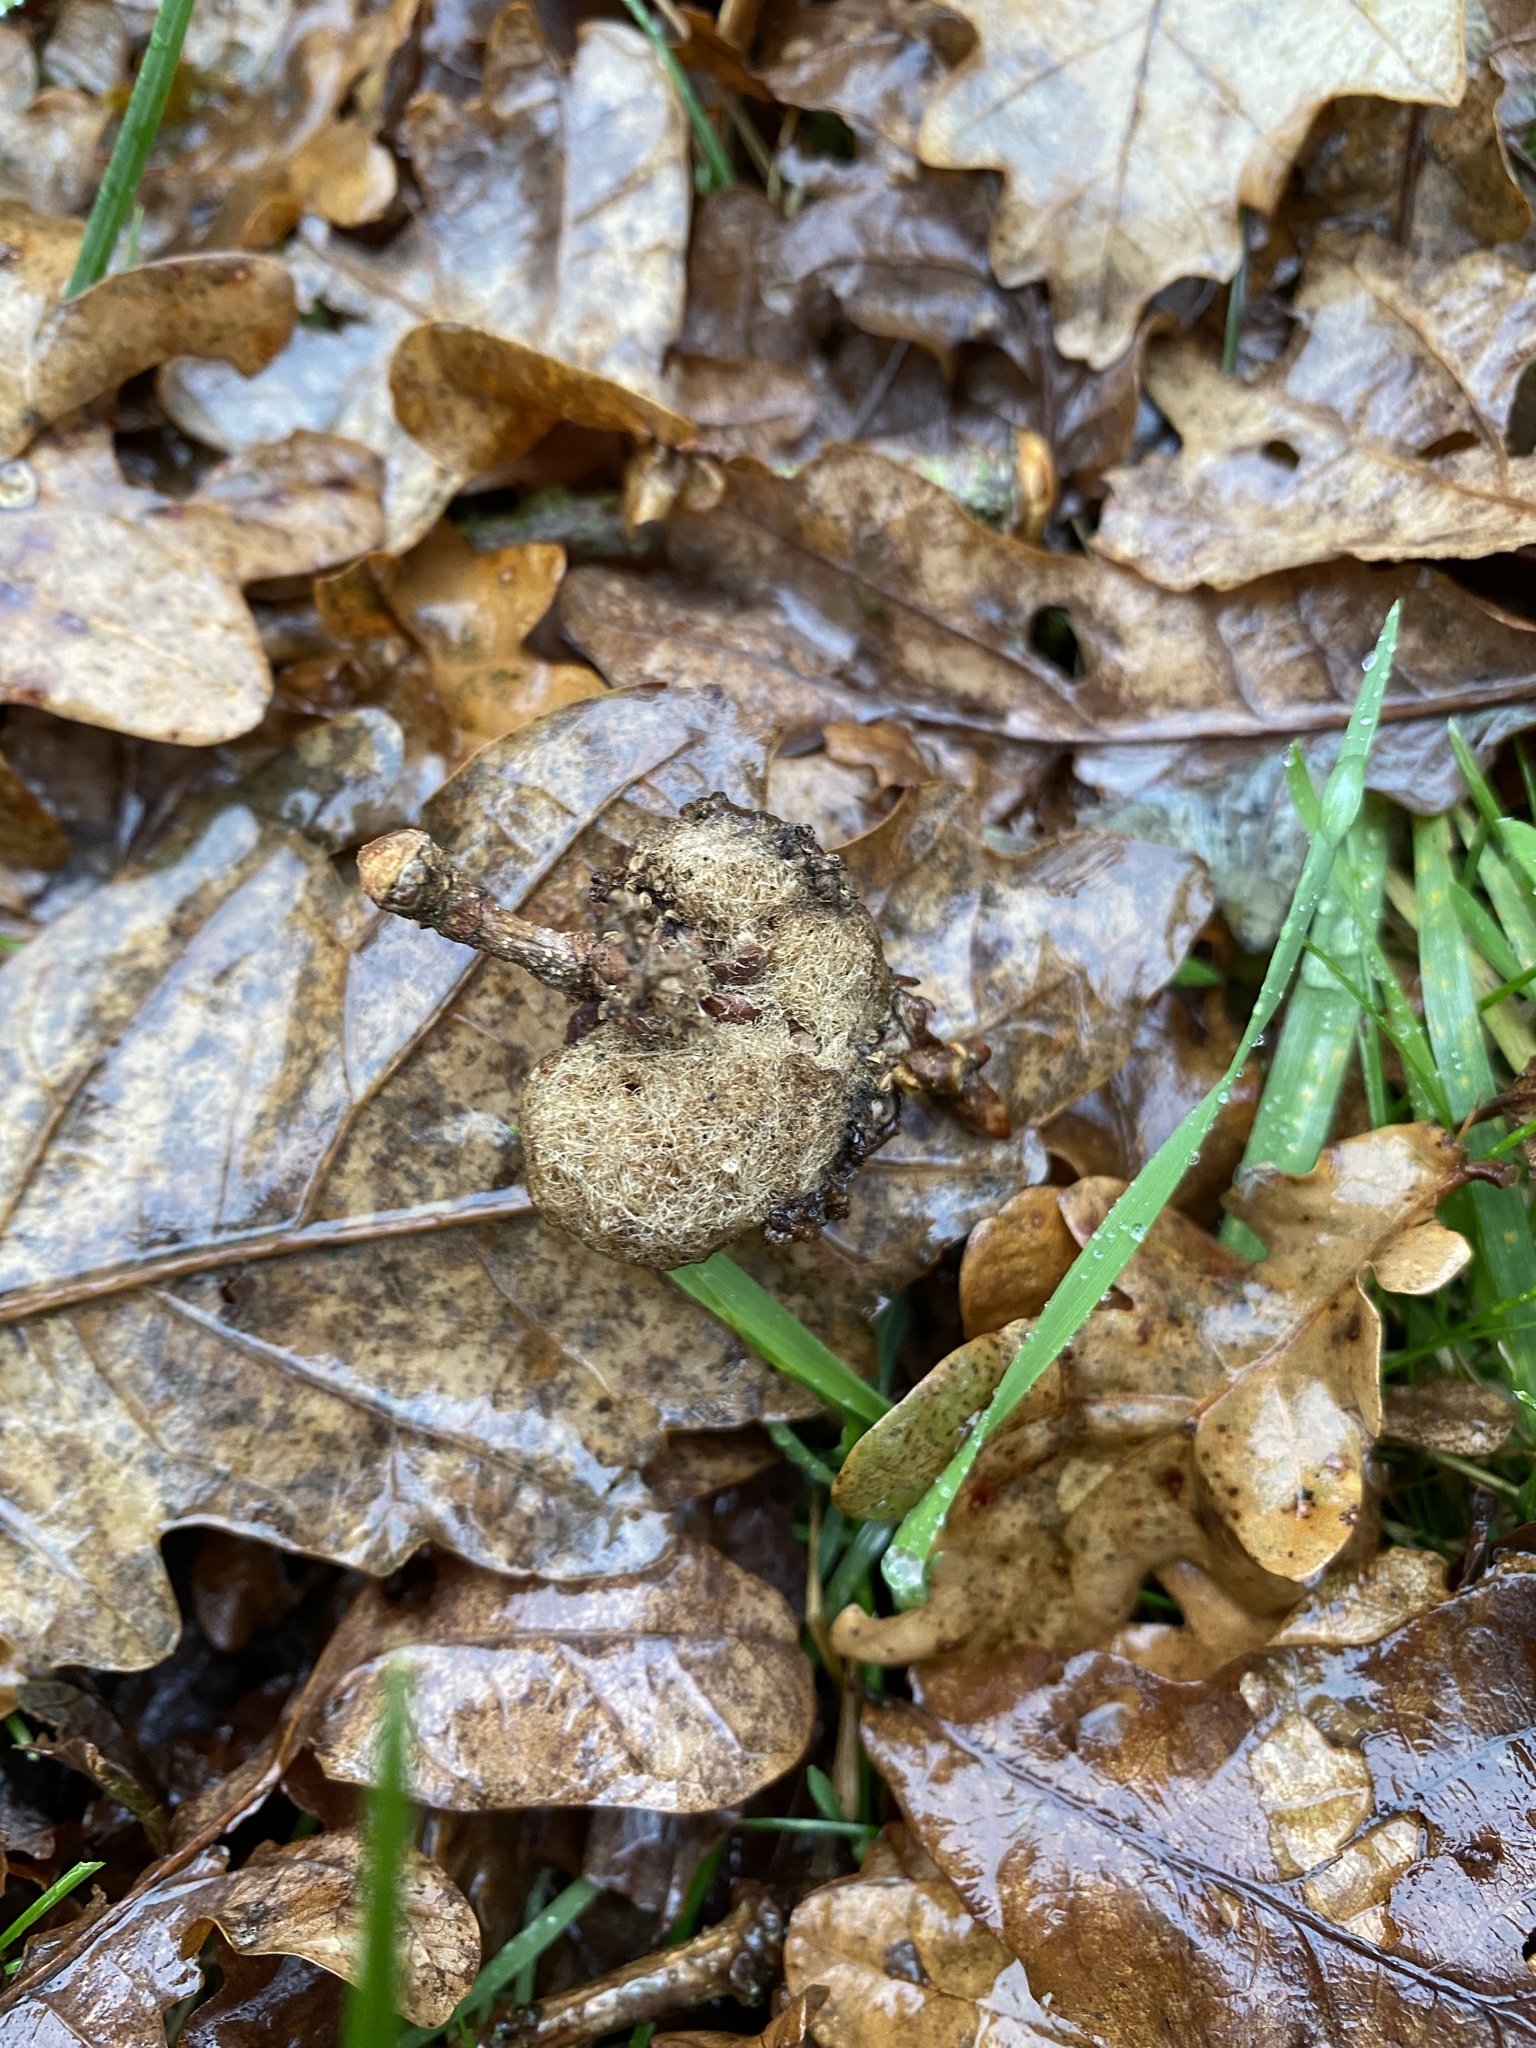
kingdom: Animalia
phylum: Arthropoda
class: Insecta
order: Hymenoptera
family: Cynipidae
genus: Andricus
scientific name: Andricus quercusramuli
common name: Cottonwool gall
